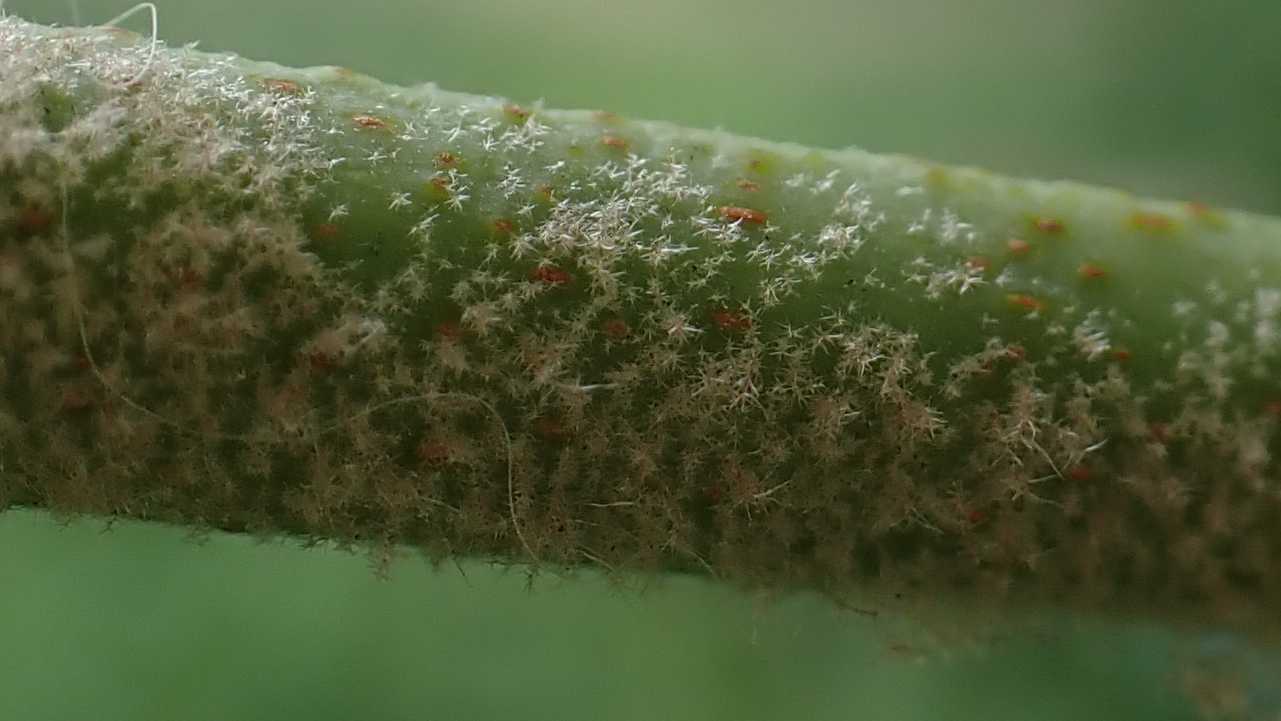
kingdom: Fungi
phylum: Ascomycota
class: Leotiomycetes
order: Helotiales
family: Erysiphaceae
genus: Erysiphe
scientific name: Erysiphe platani
